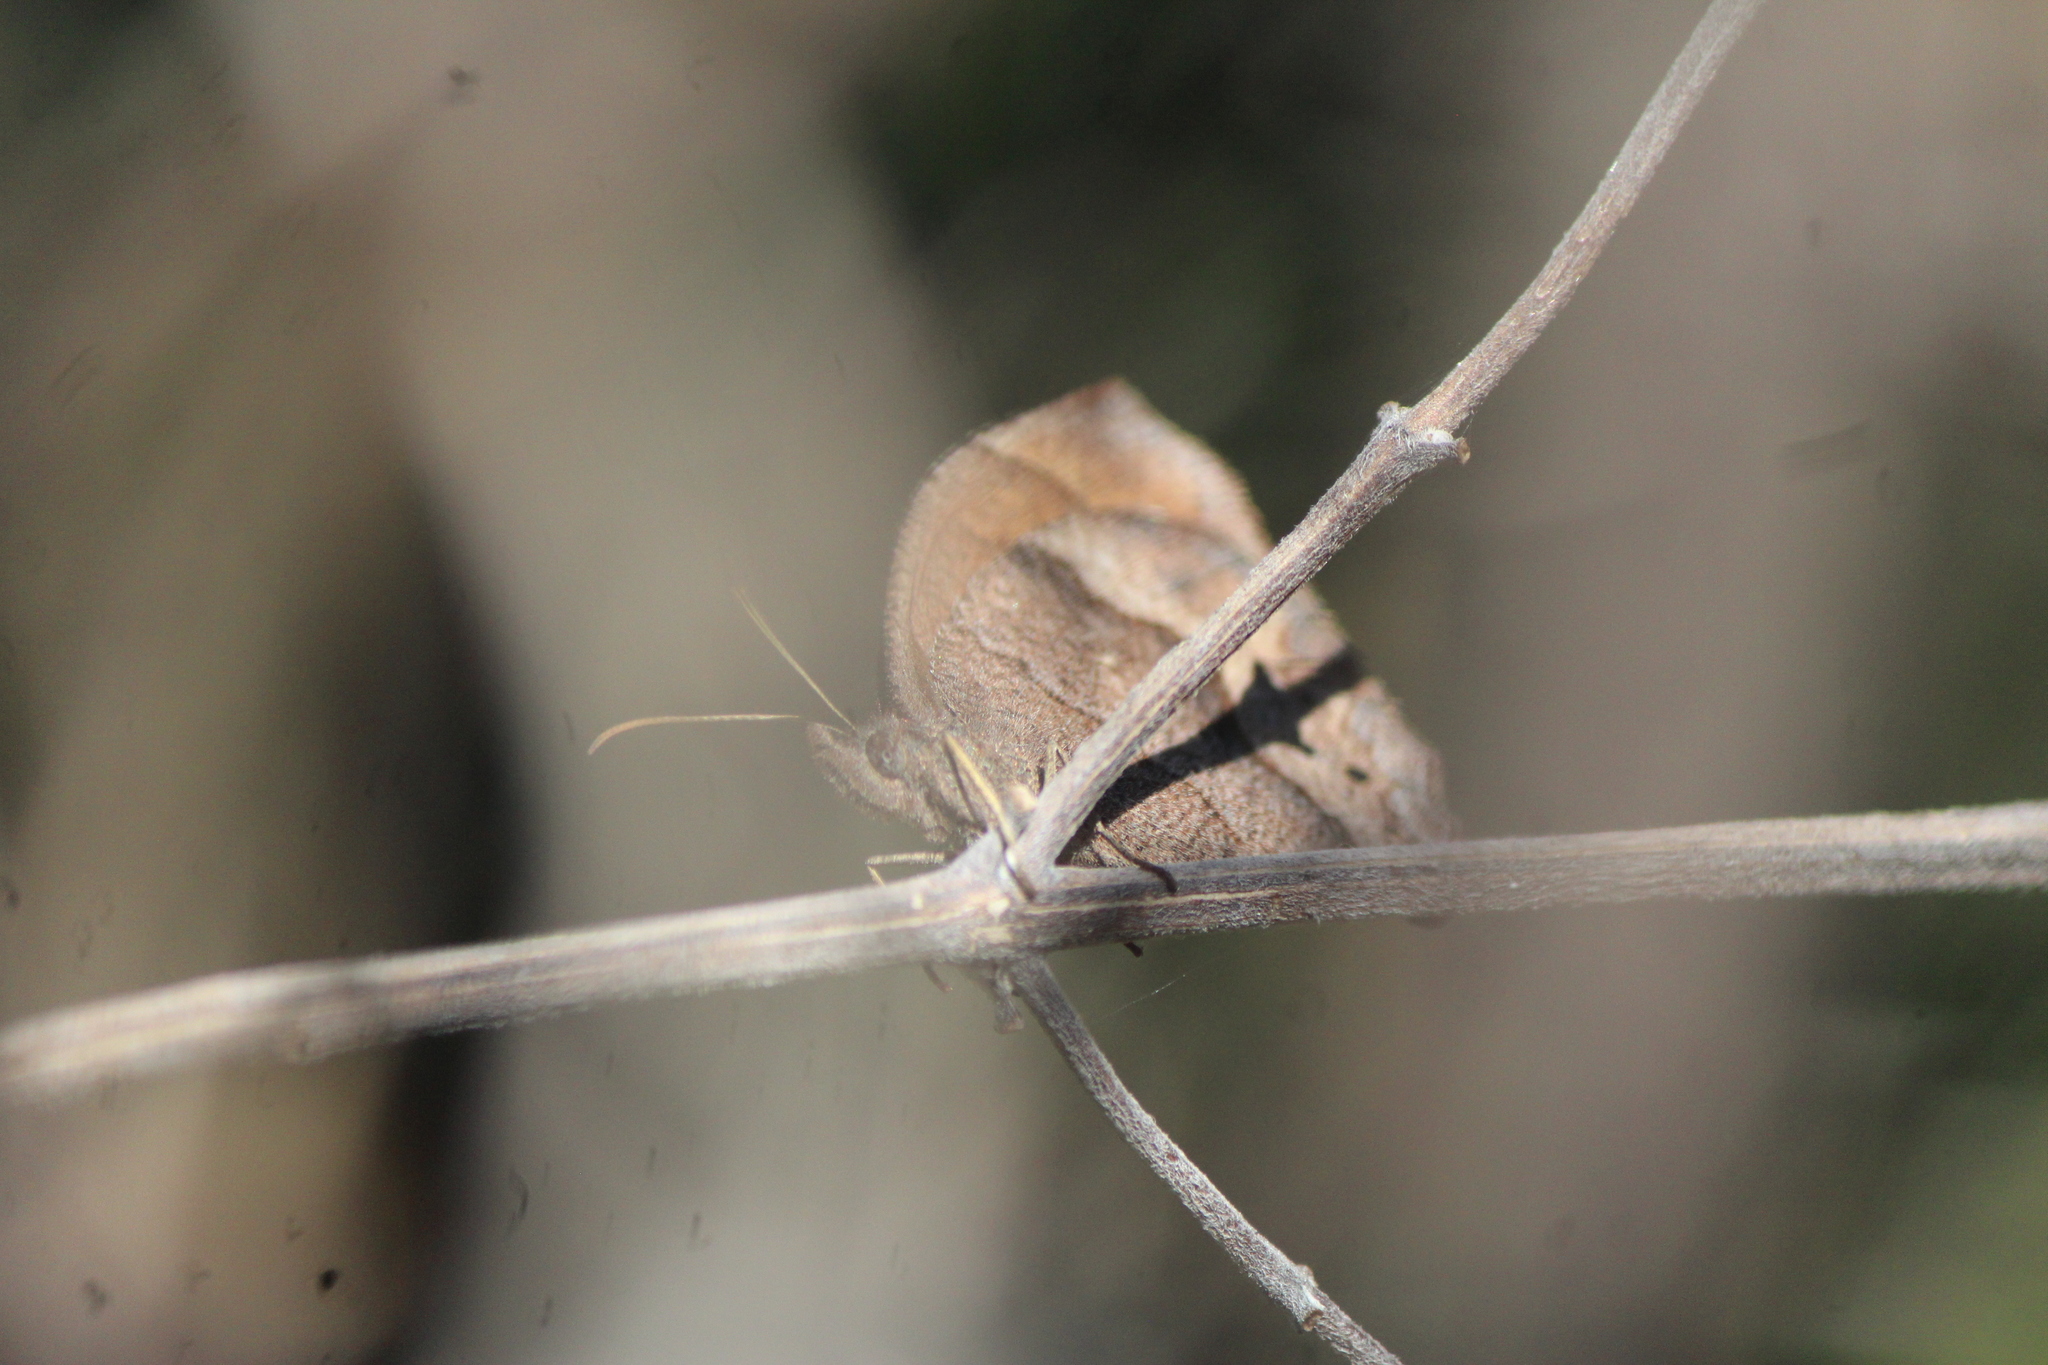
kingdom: Animalia
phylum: Arthropoda
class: Insecta
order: Lepidoptera
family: Nymphalidae
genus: Pindis
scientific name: Pindis squamistriga
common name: Variable satyr
